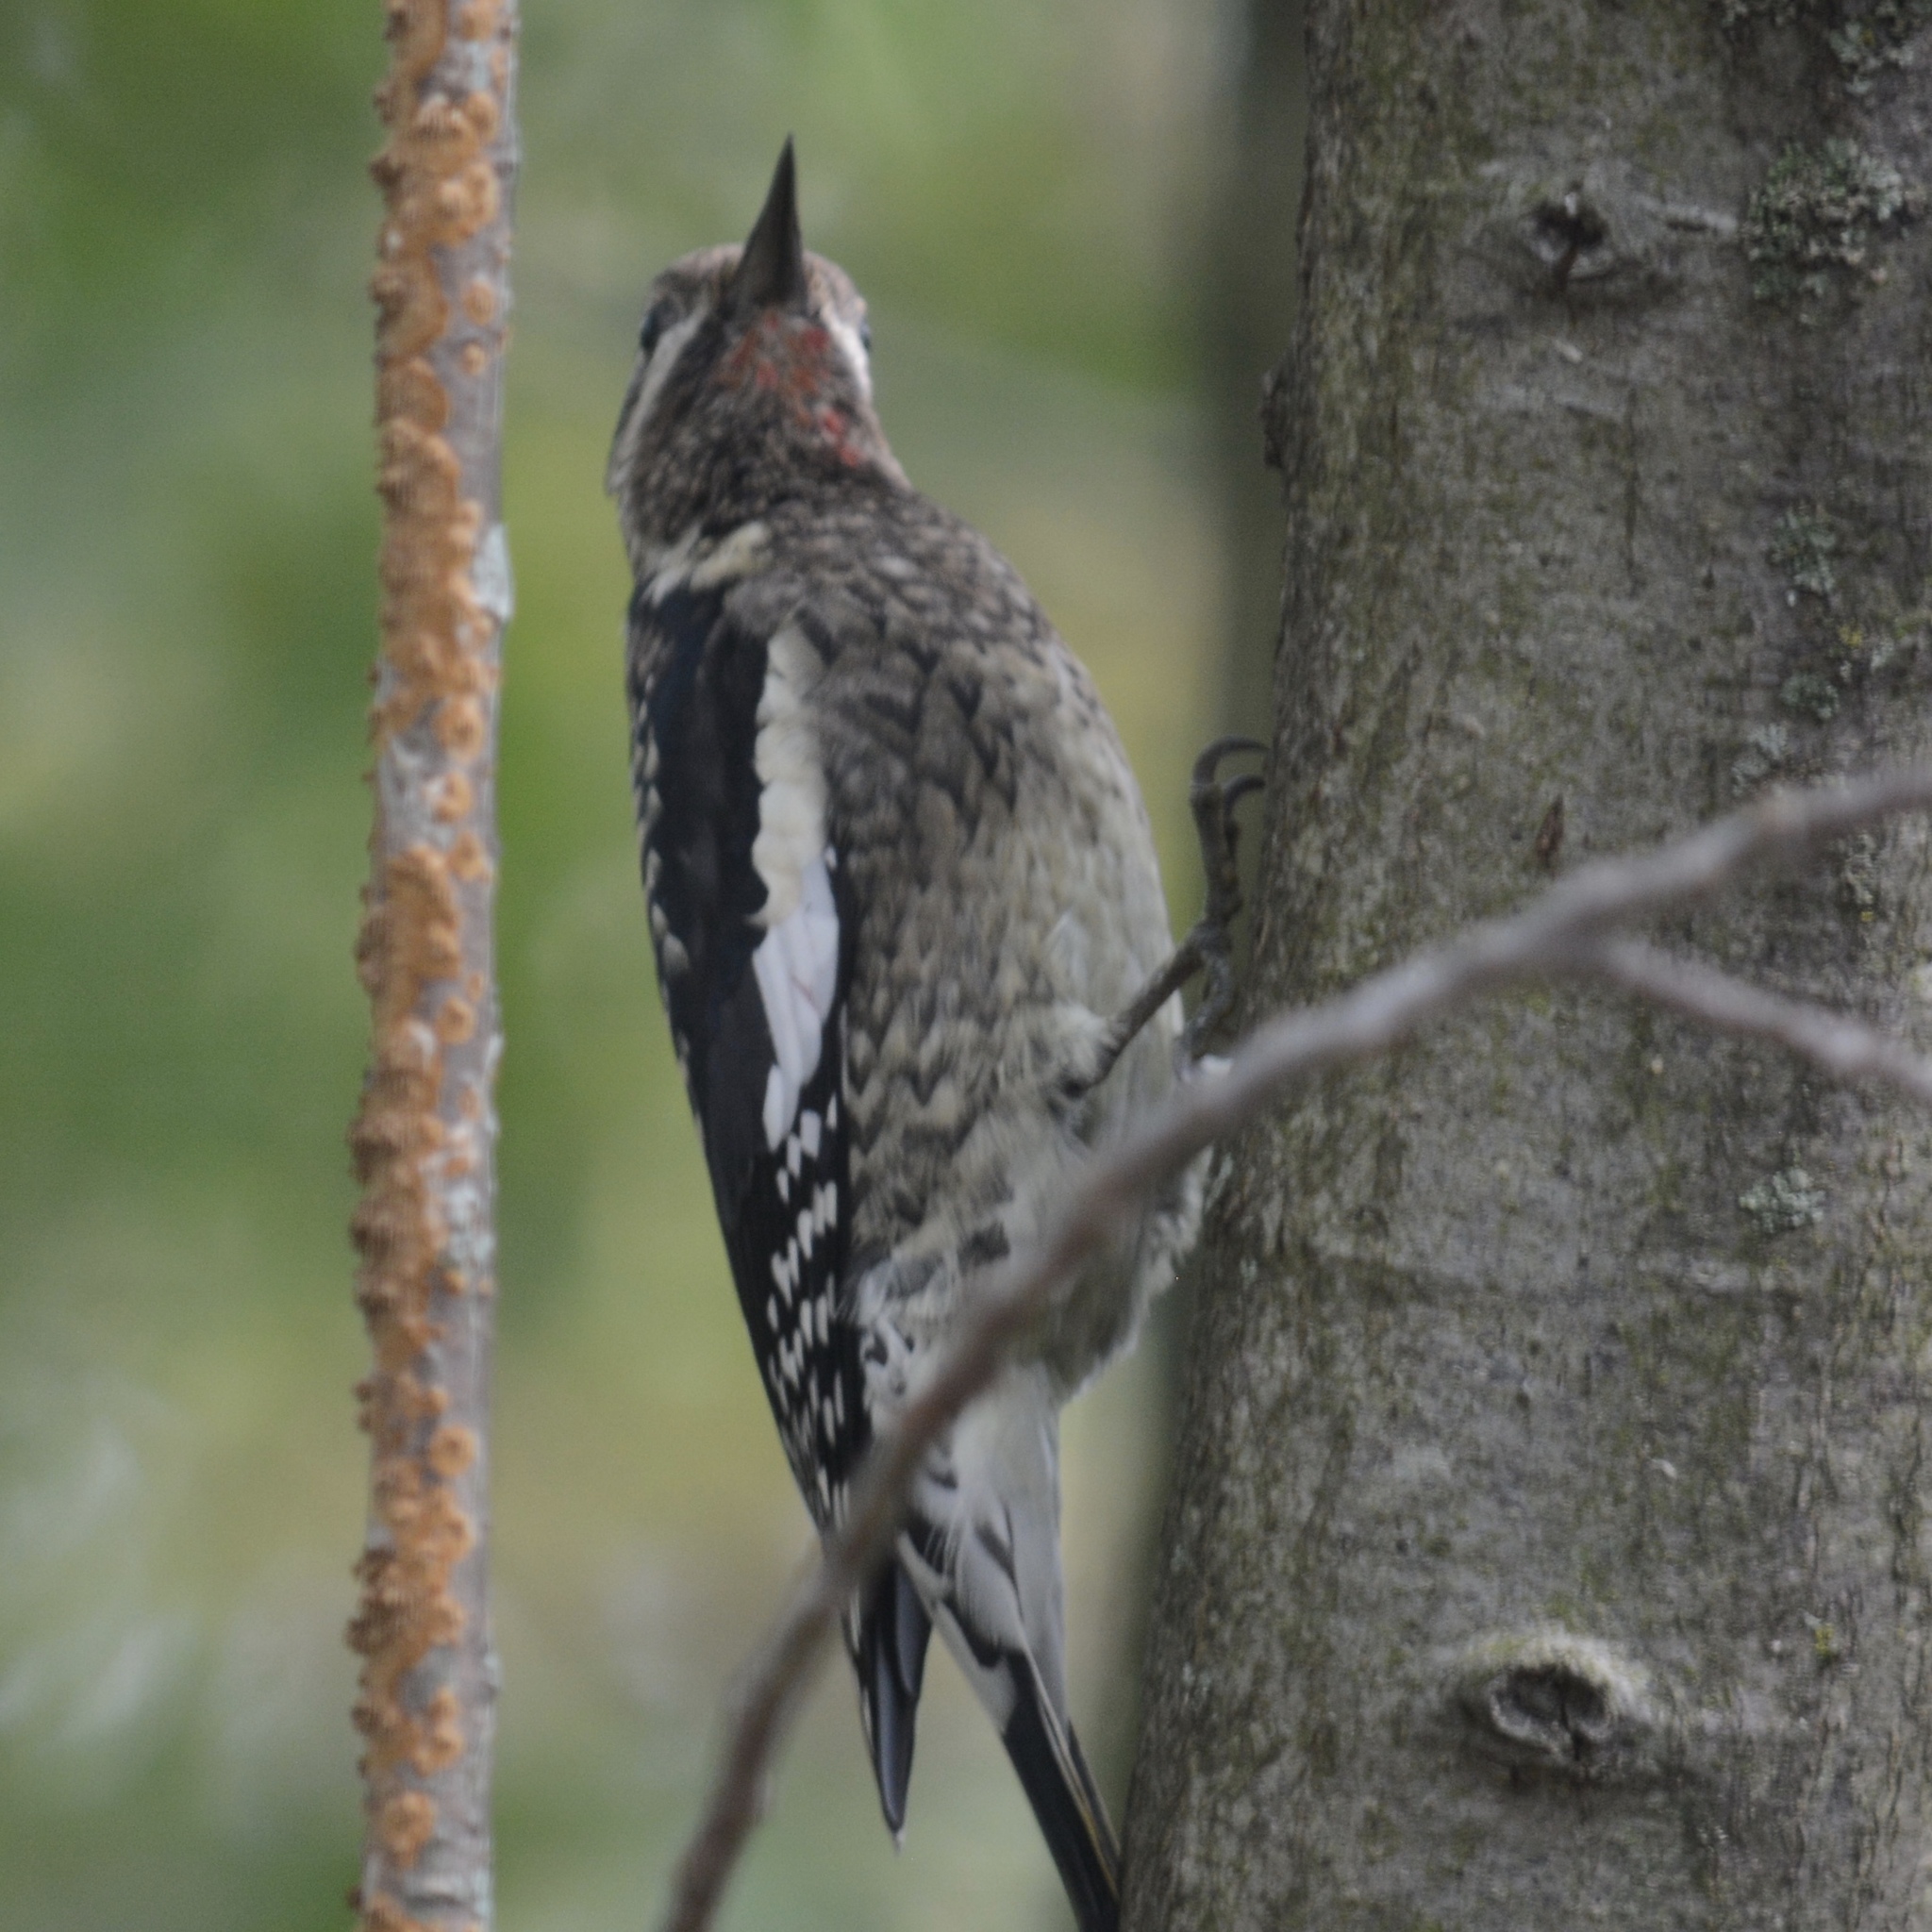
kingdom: Animalia
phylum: Chordata
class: Aves
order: Piciformes
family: Picidae
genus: Sphyrapicus
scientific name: Sphyrapicus varius
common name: Yellow-bellied sapsucker
